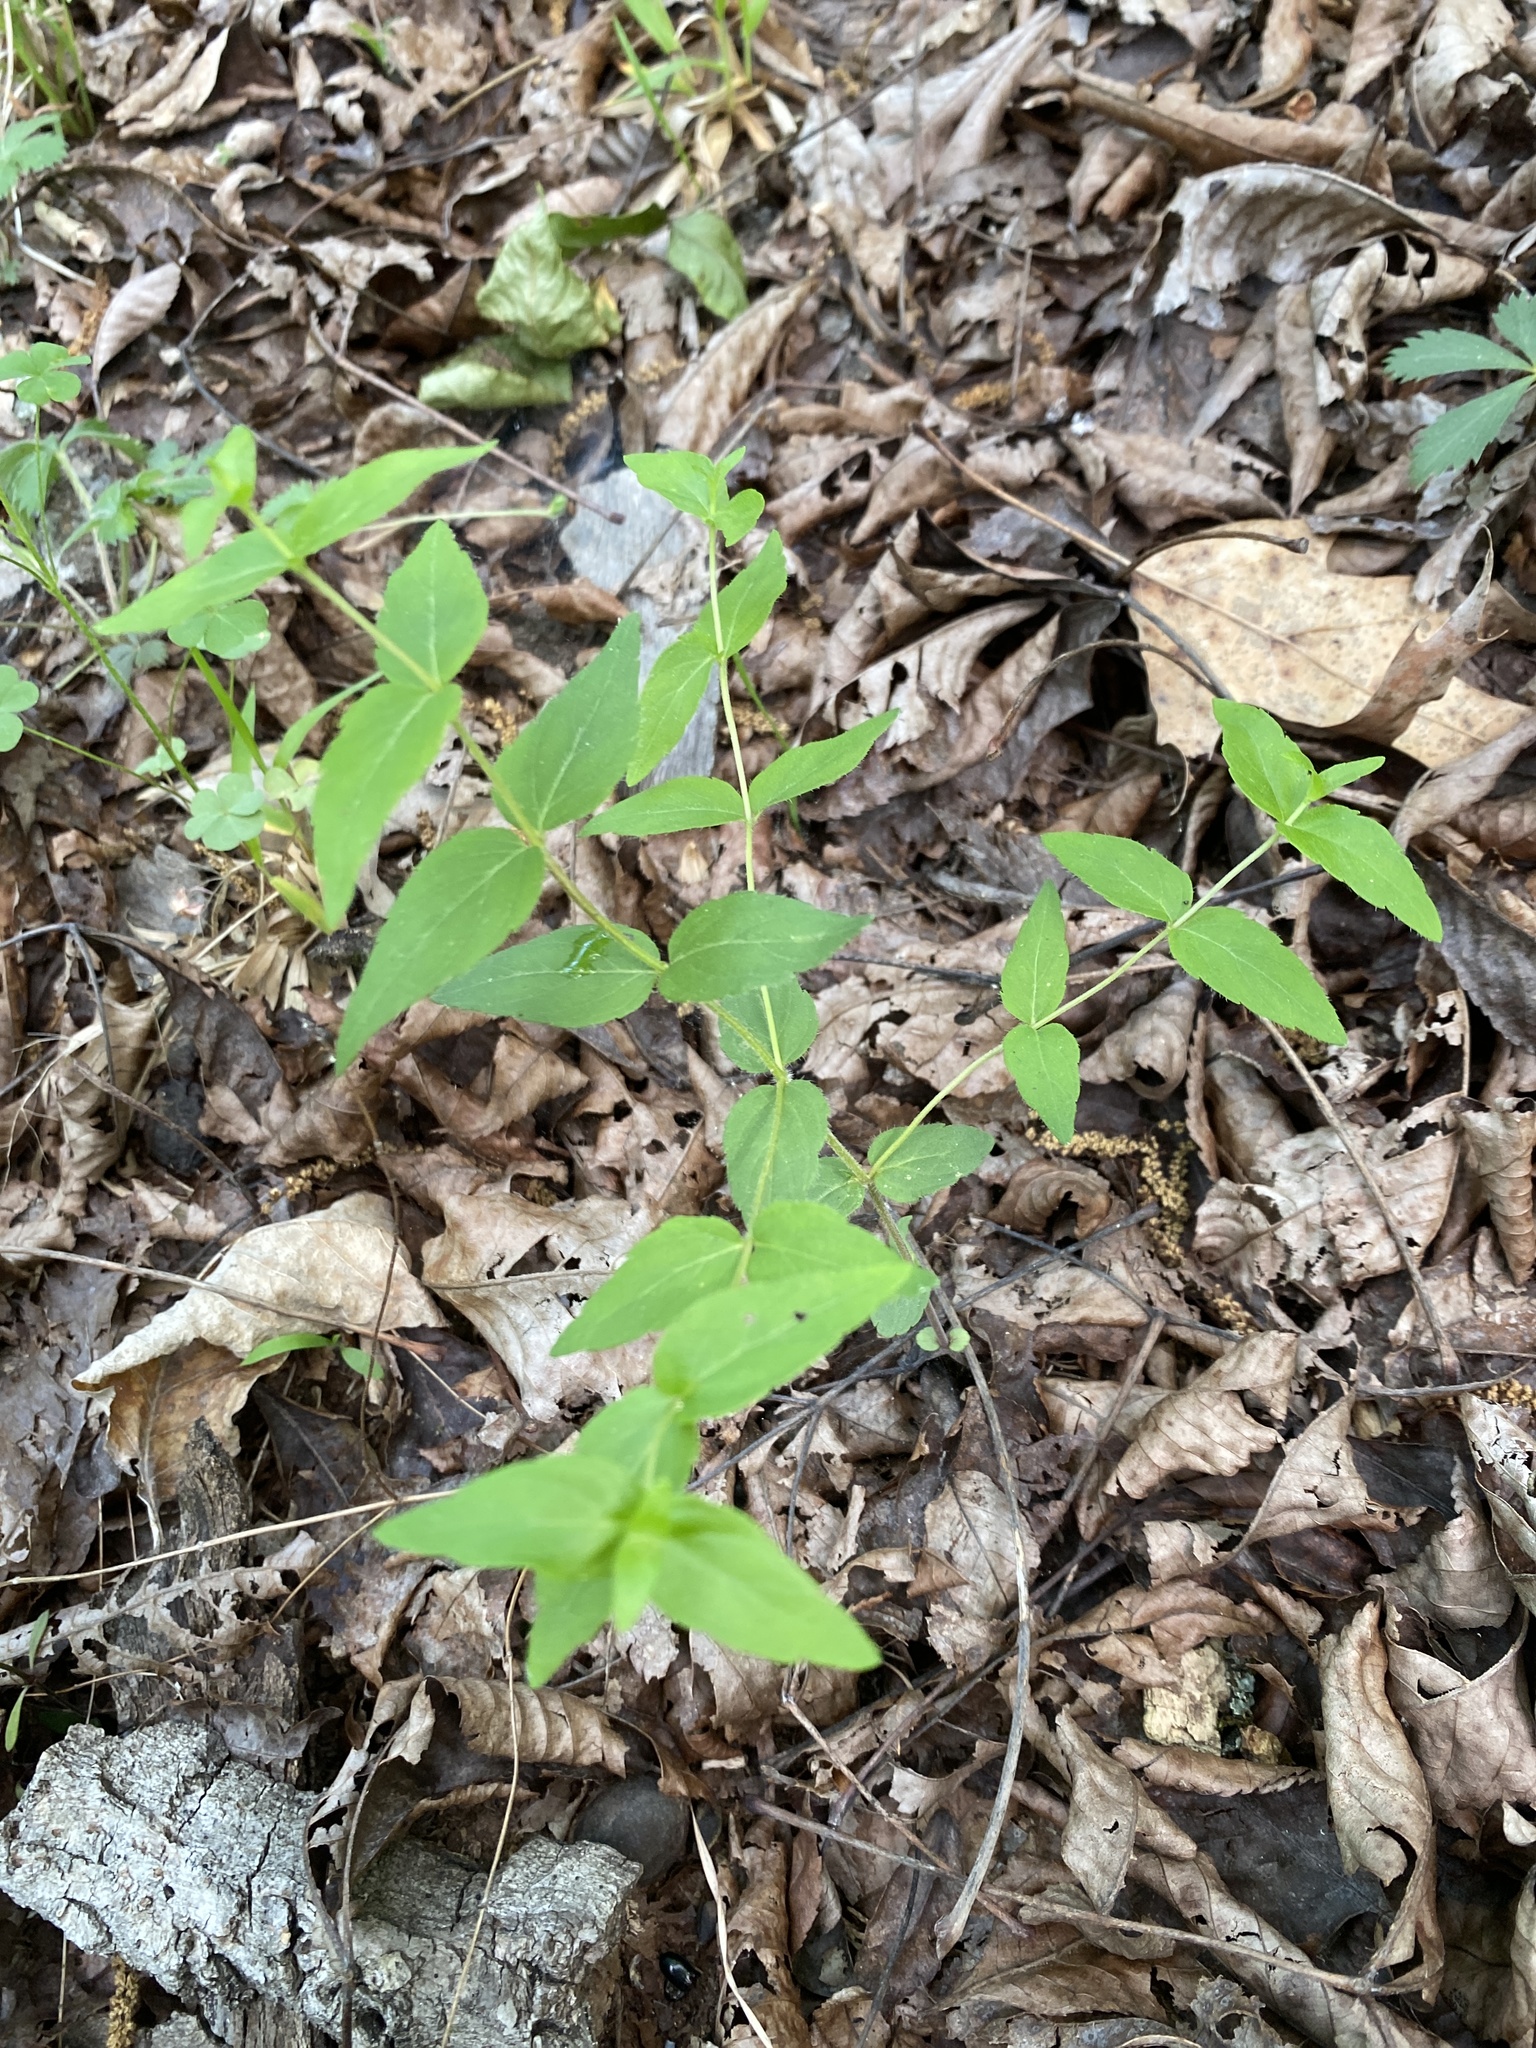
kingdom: Plantae
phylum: Tracheophyta
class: Magnoliopsida
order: Lamiales
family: Lamiaceae
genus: Cunila
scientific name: Cunila origanoides
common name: American dittany
